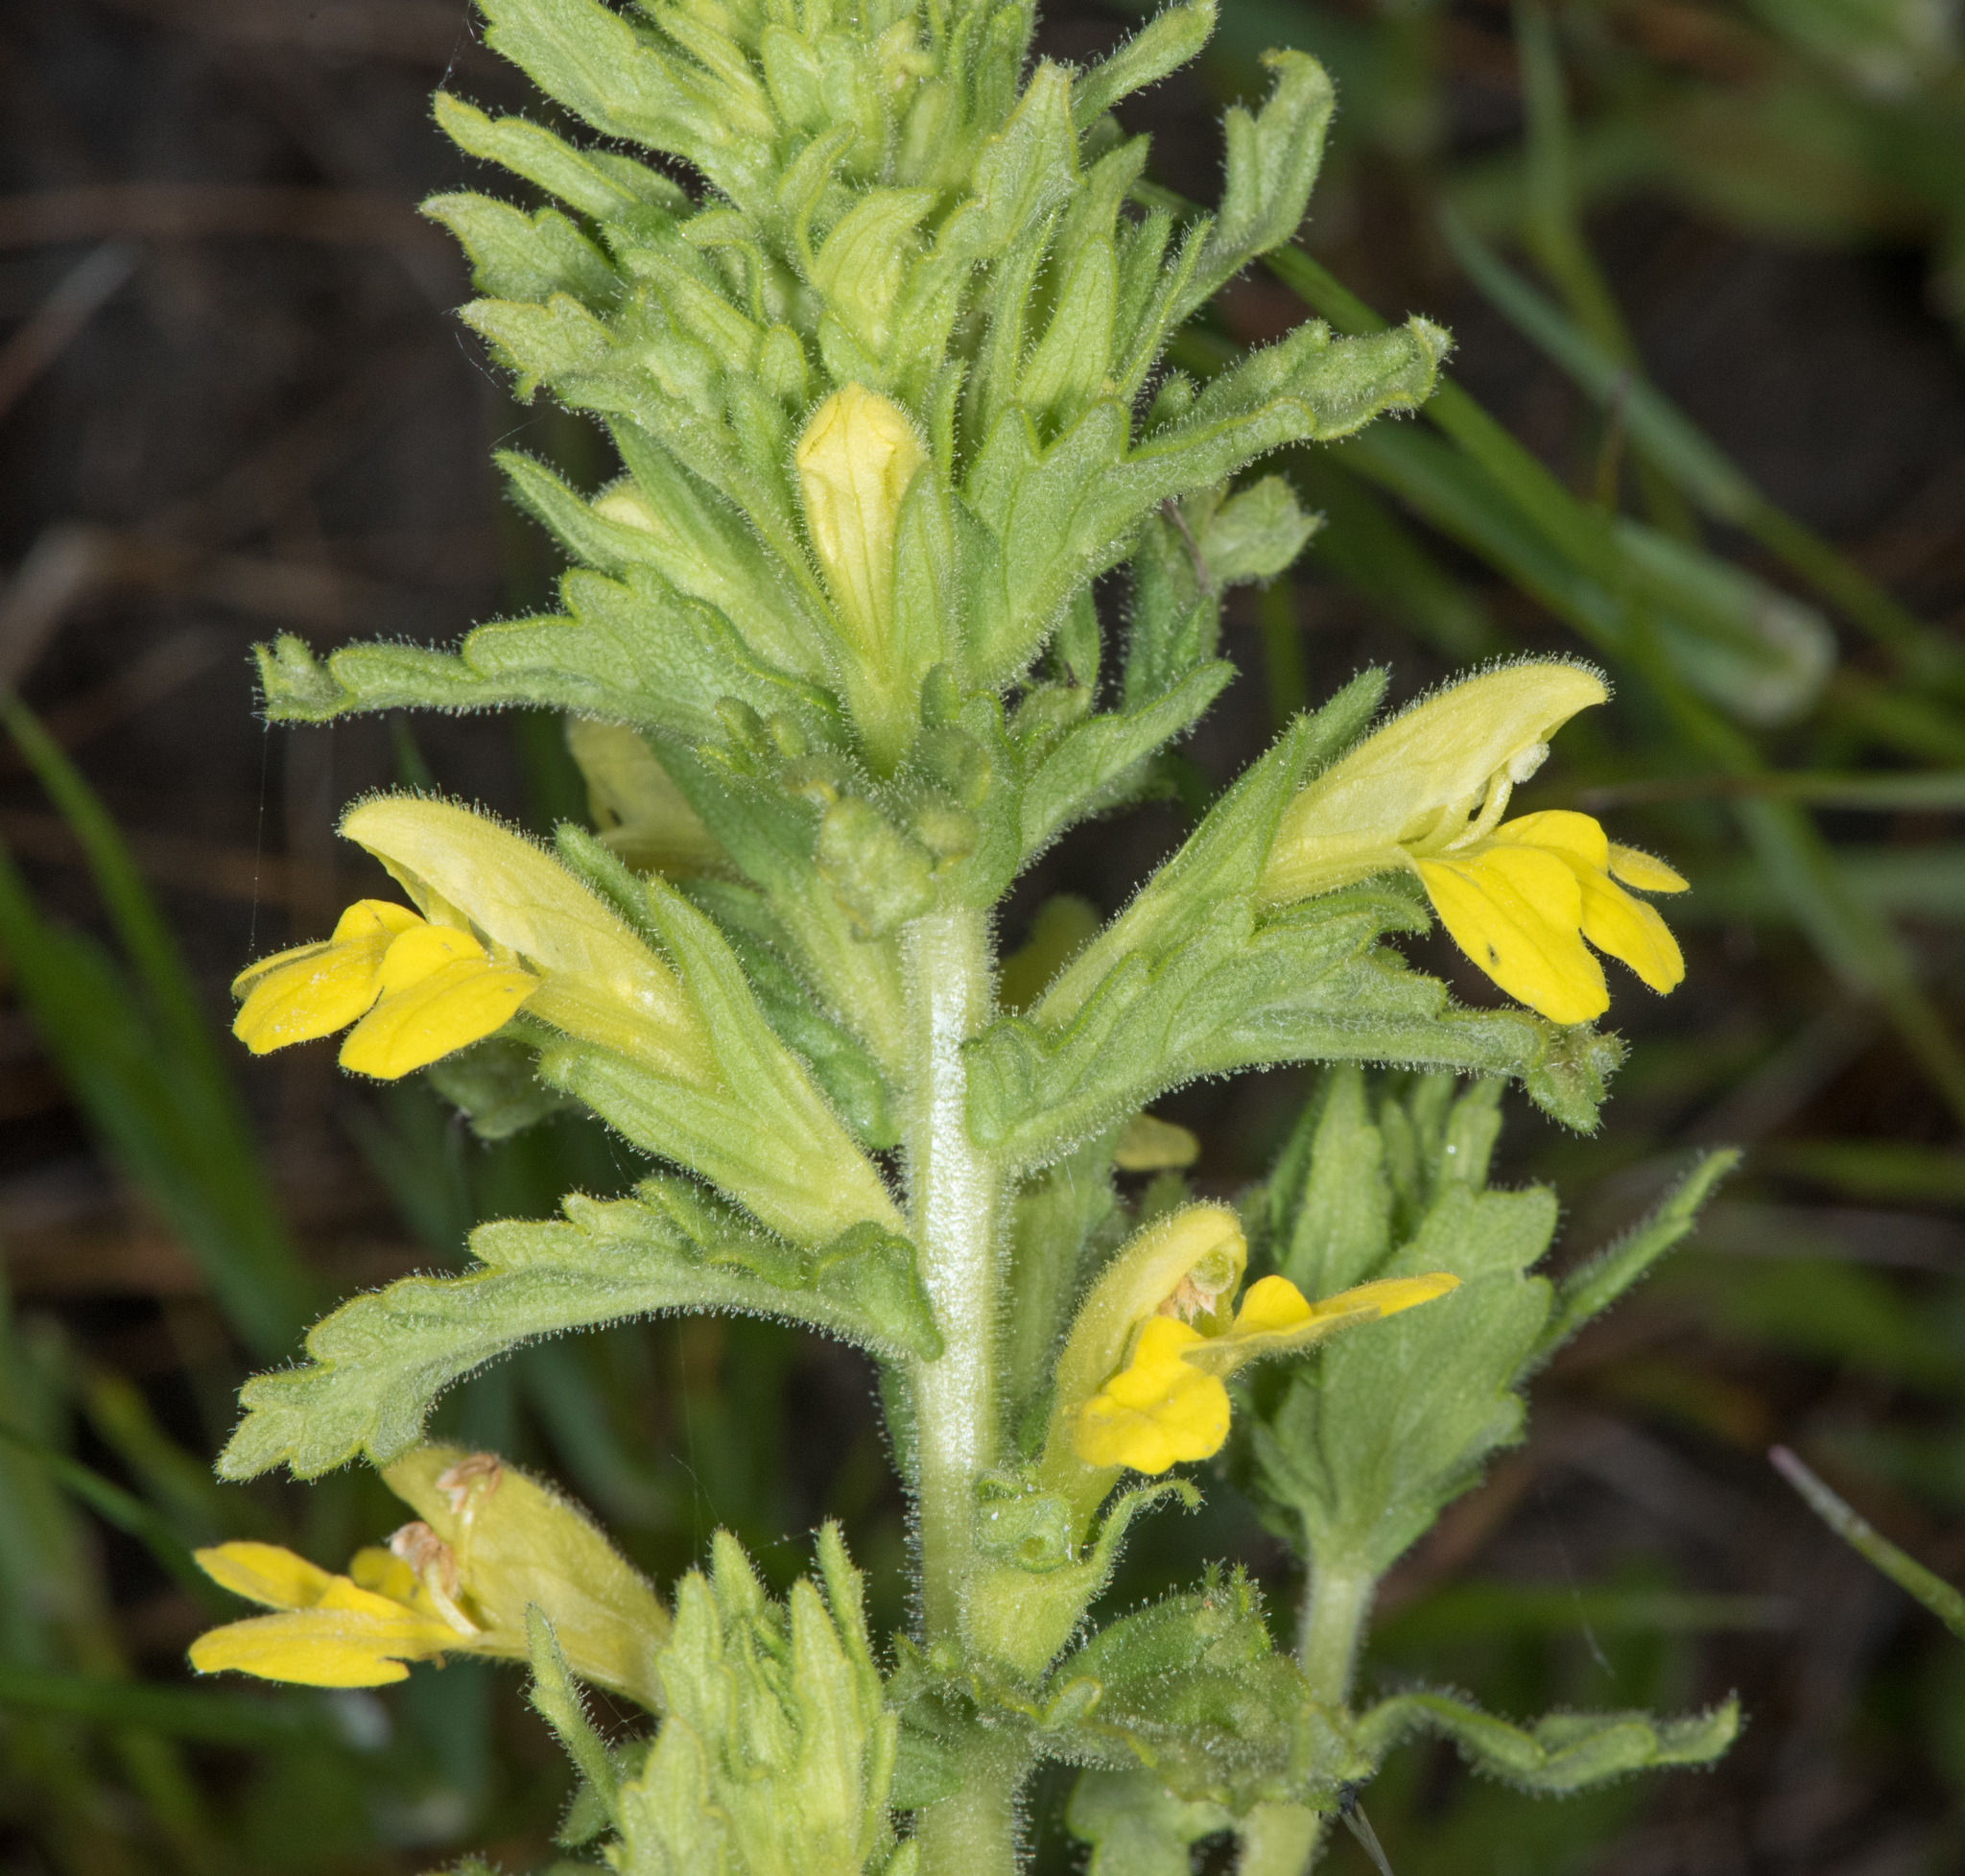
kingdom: Plantae
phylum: Tracheophyta
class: Magnoliopsida
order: Lamiales
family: Orobanchaceae
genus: Bellardia
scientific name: Bellardia viscosa
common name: Sticky parentucellia
